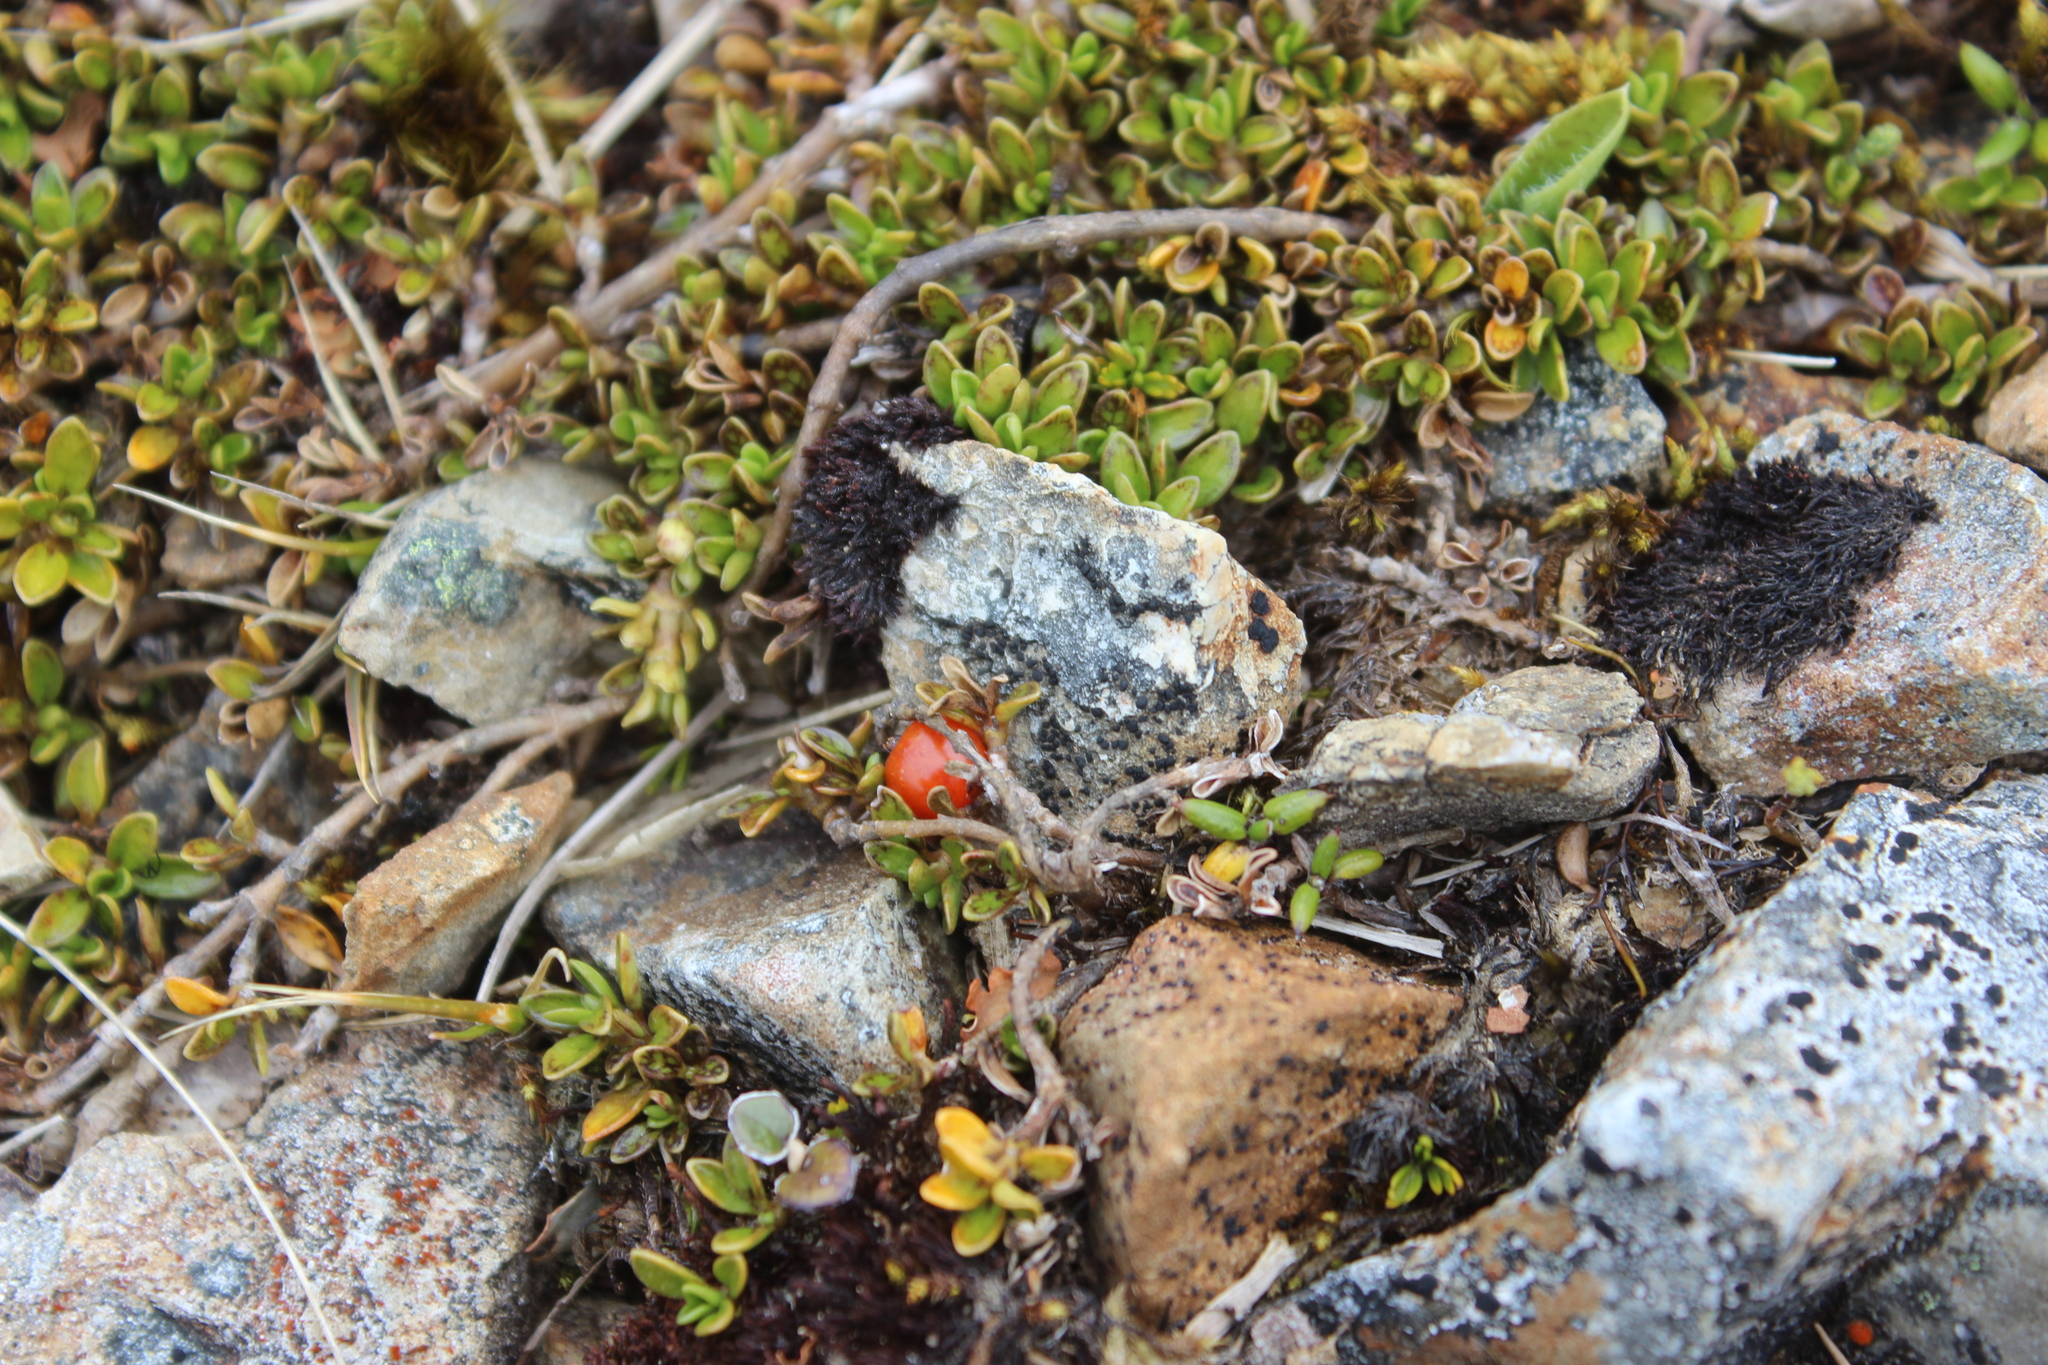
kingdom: Plantae
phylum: Tracheophyta
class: Magnoliopsida
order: Gentianales
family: Rubiaceae
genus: Coprosma
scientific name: Coprosma perpusilla
